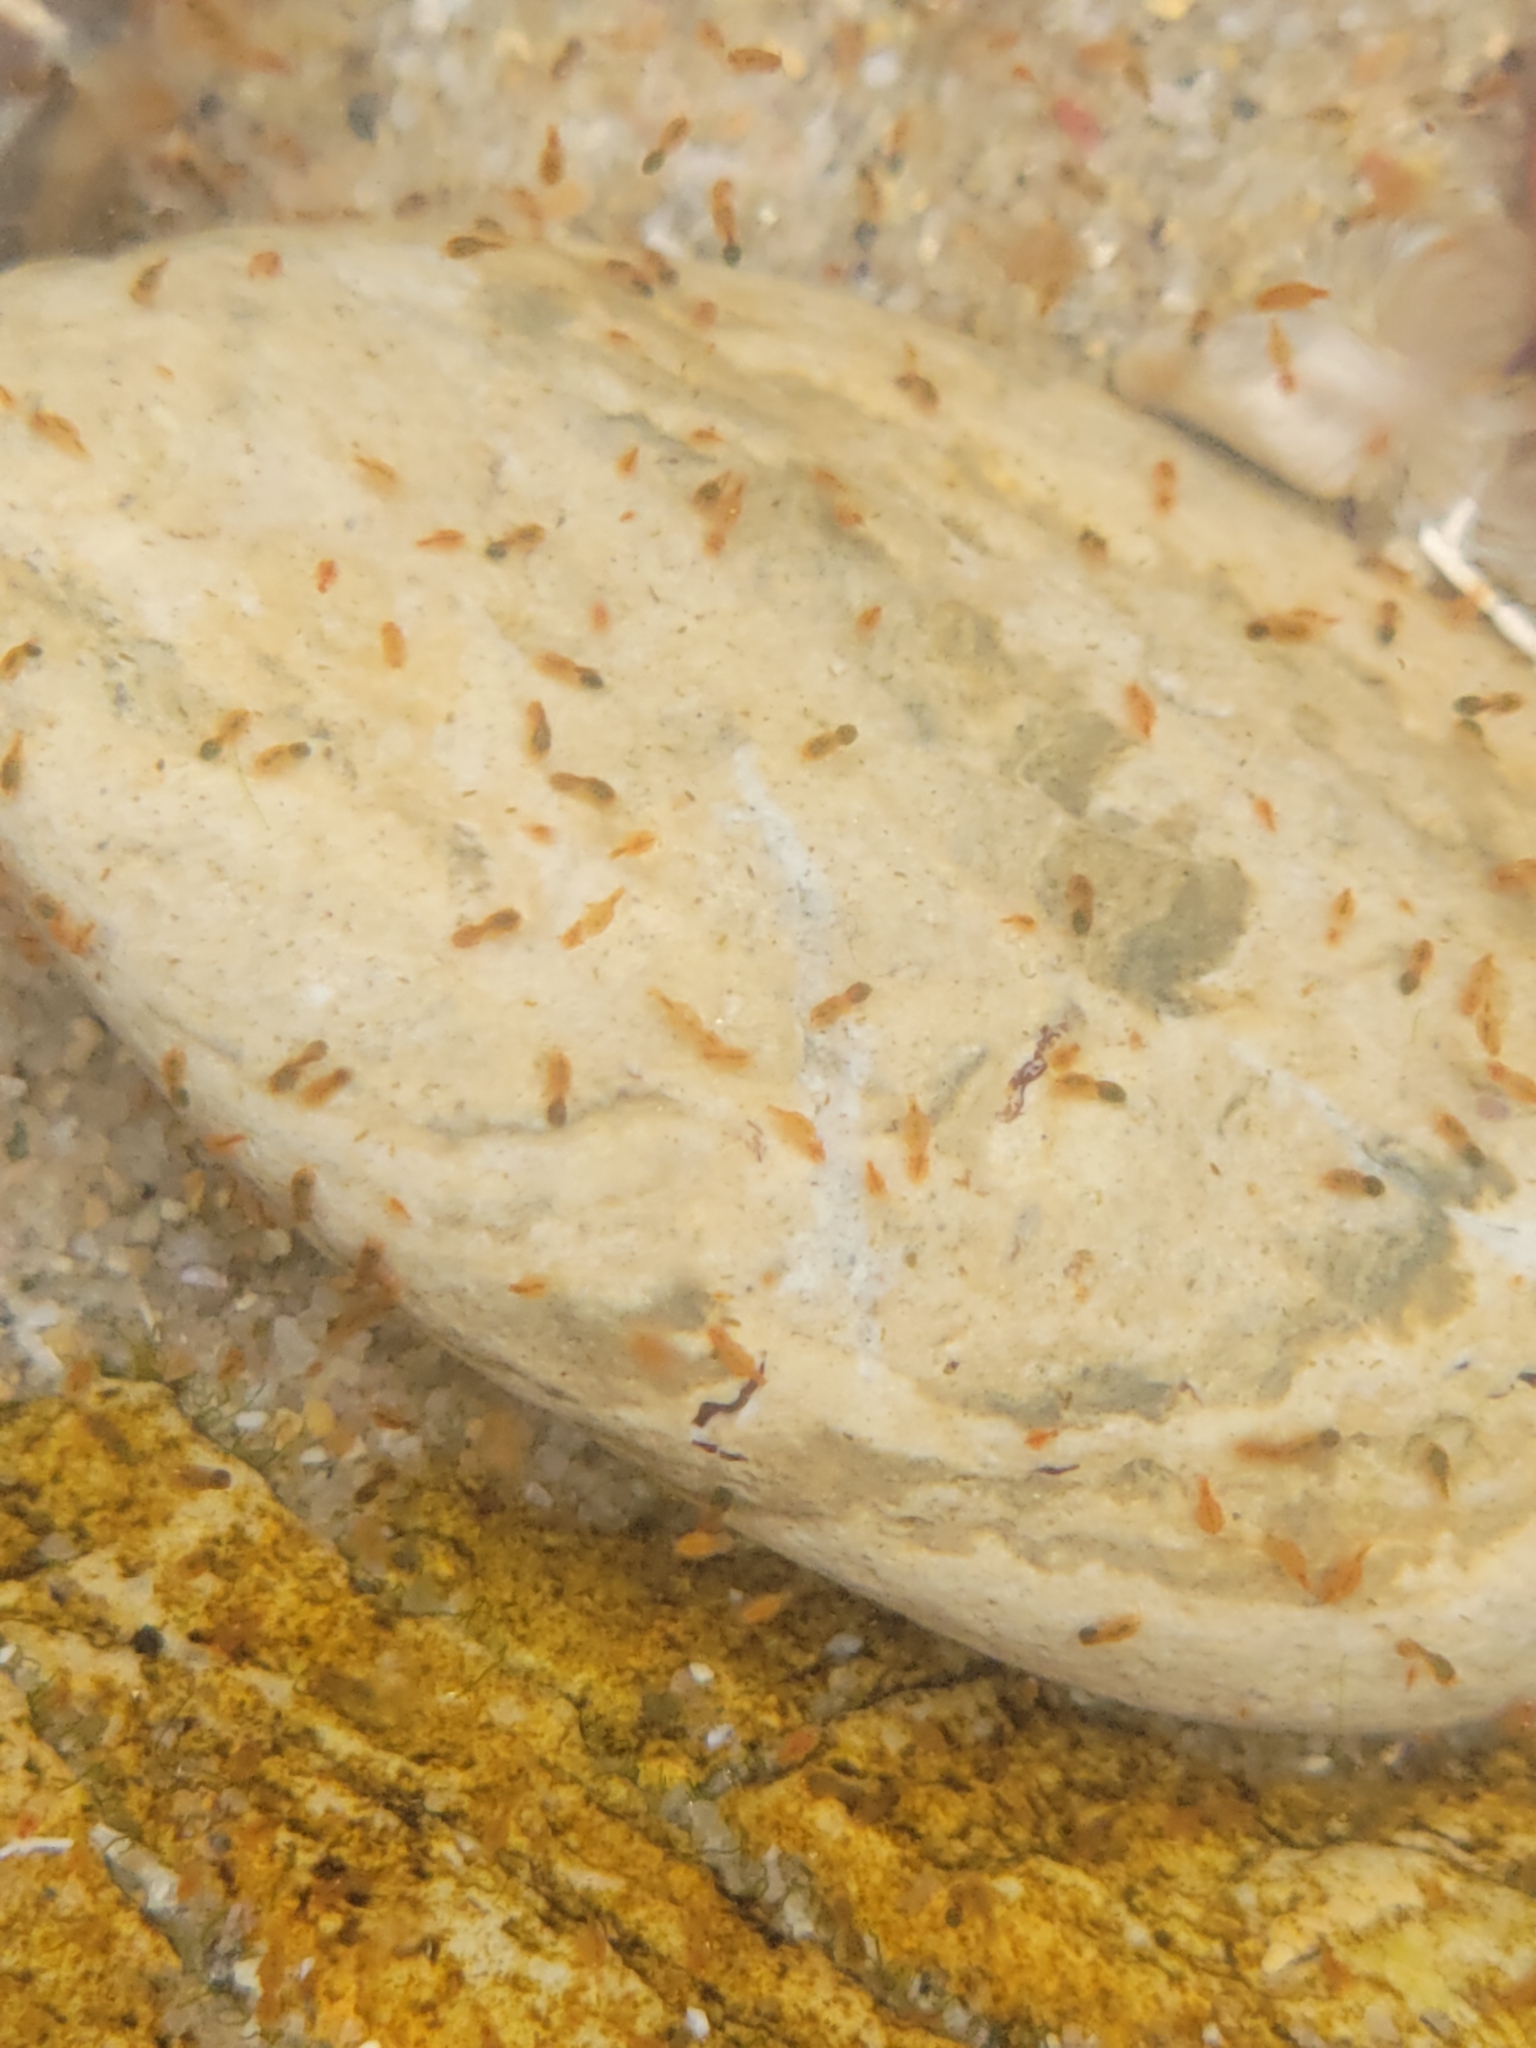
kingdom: Animalia
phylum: Mollusca
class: Gastropoda
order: Littorinimorpha
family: Cypraeidae
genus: Neobernaya
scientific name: Neobernaya spadicea
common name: Chestnut cowrie
